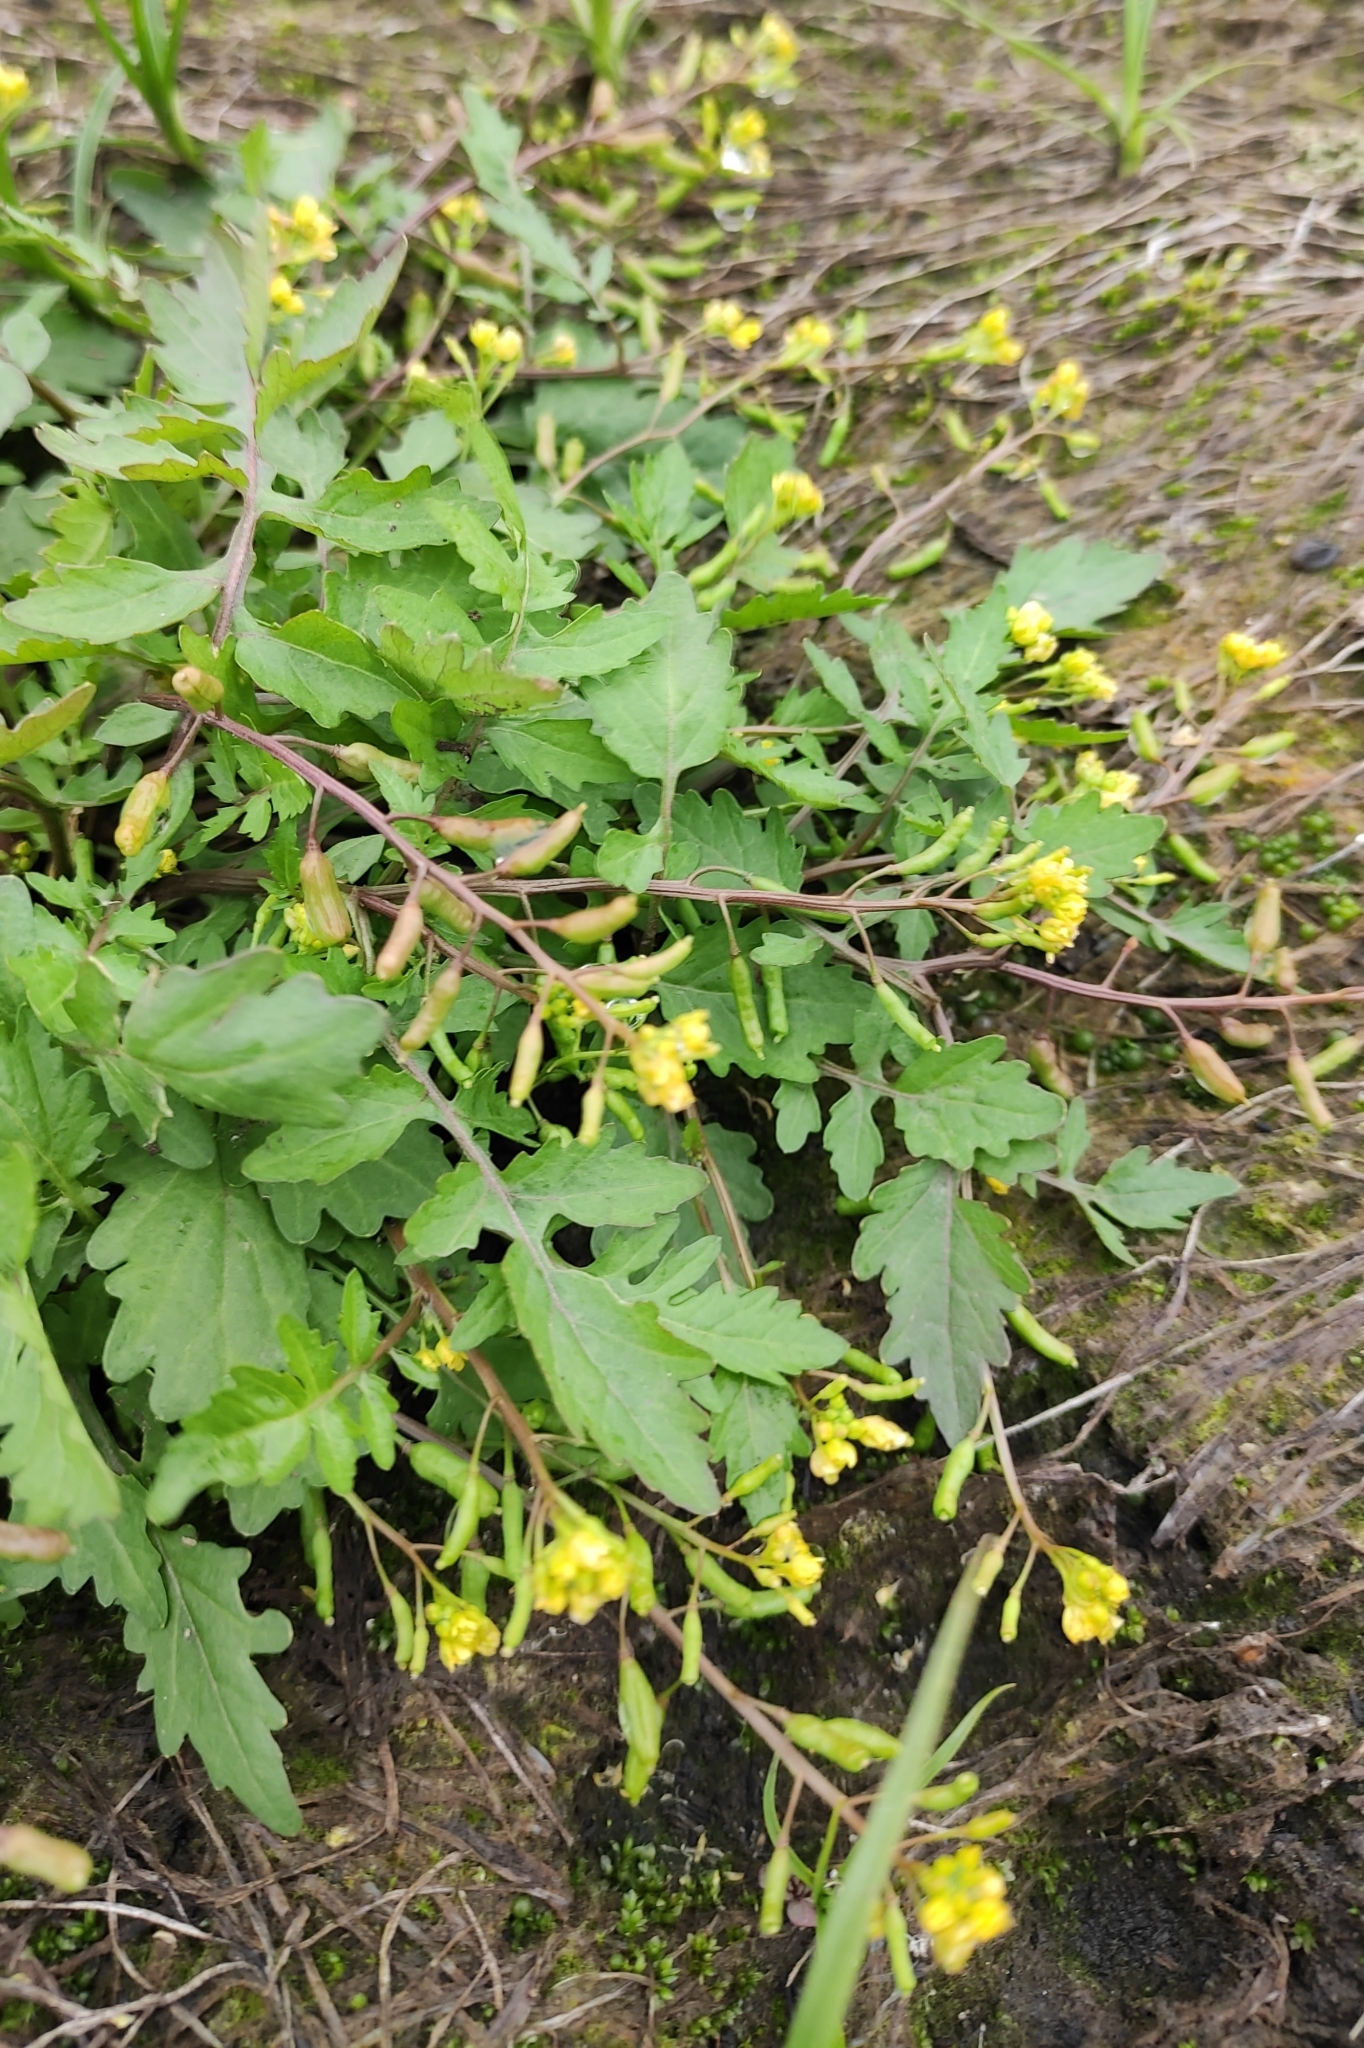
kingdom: Plantae
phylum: Tracheophyta
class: Magnoliopsida
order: Brassicales
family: Brassicaceae
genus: Rorippa
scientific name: Rorippa palustris
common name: Marsh yellow-cress
